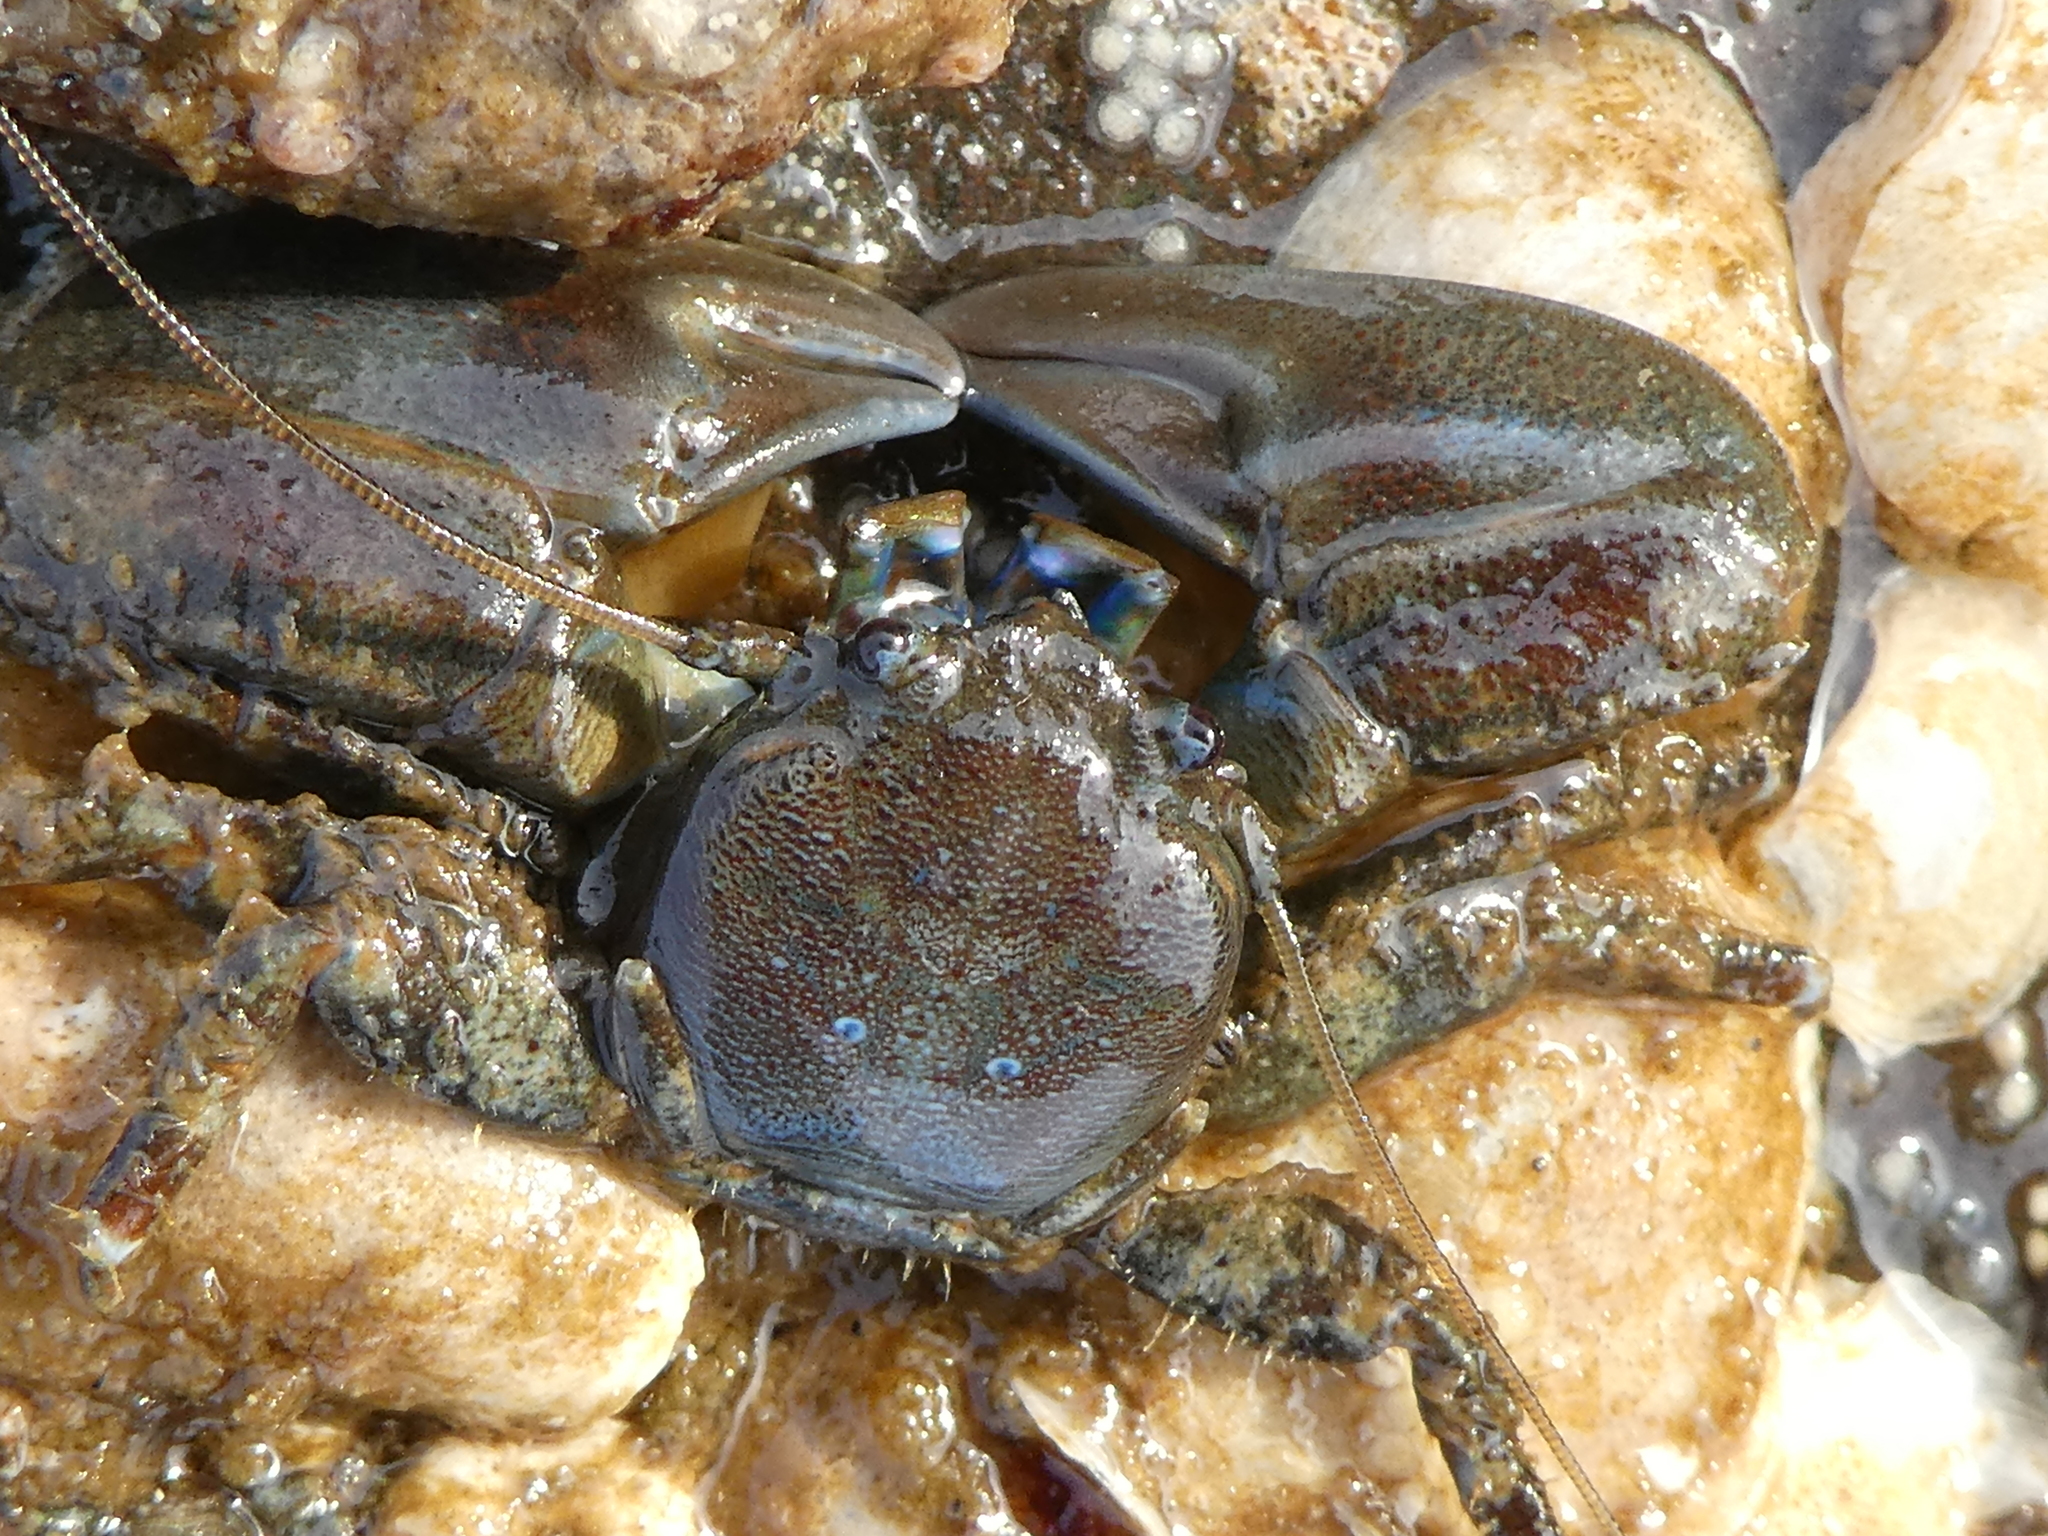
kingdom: Animalia
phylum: Arthropoda
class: Malacostraca
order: Decapoda
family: Porcellanidae
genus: Petrolisthes
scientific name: Petrolisthes eriomerus
